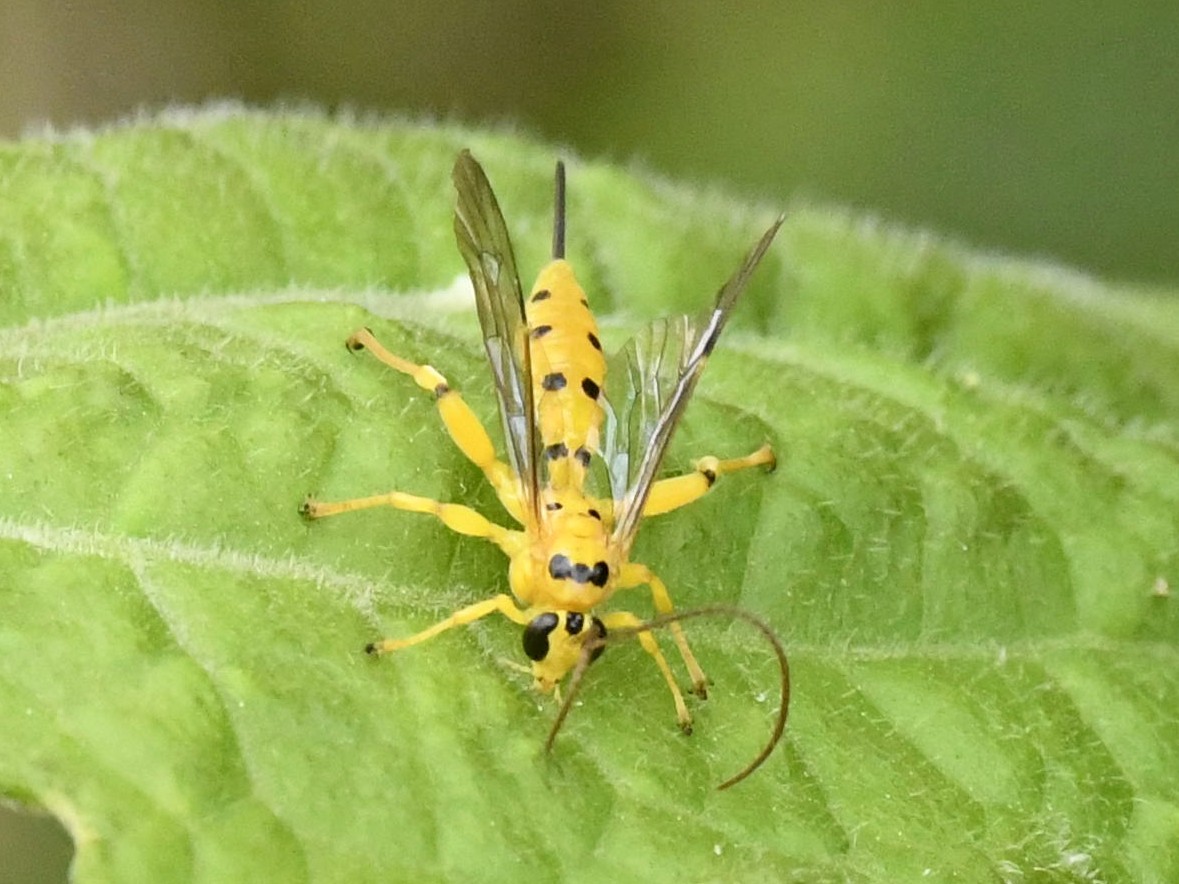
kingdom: Animalia
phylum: Arthropoda
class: Insecta
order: Hymenoptera
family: Ichneumonidae
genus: Xanthopimpla
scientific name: Xanthopimpla punctata
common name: Parasitoid wasp
